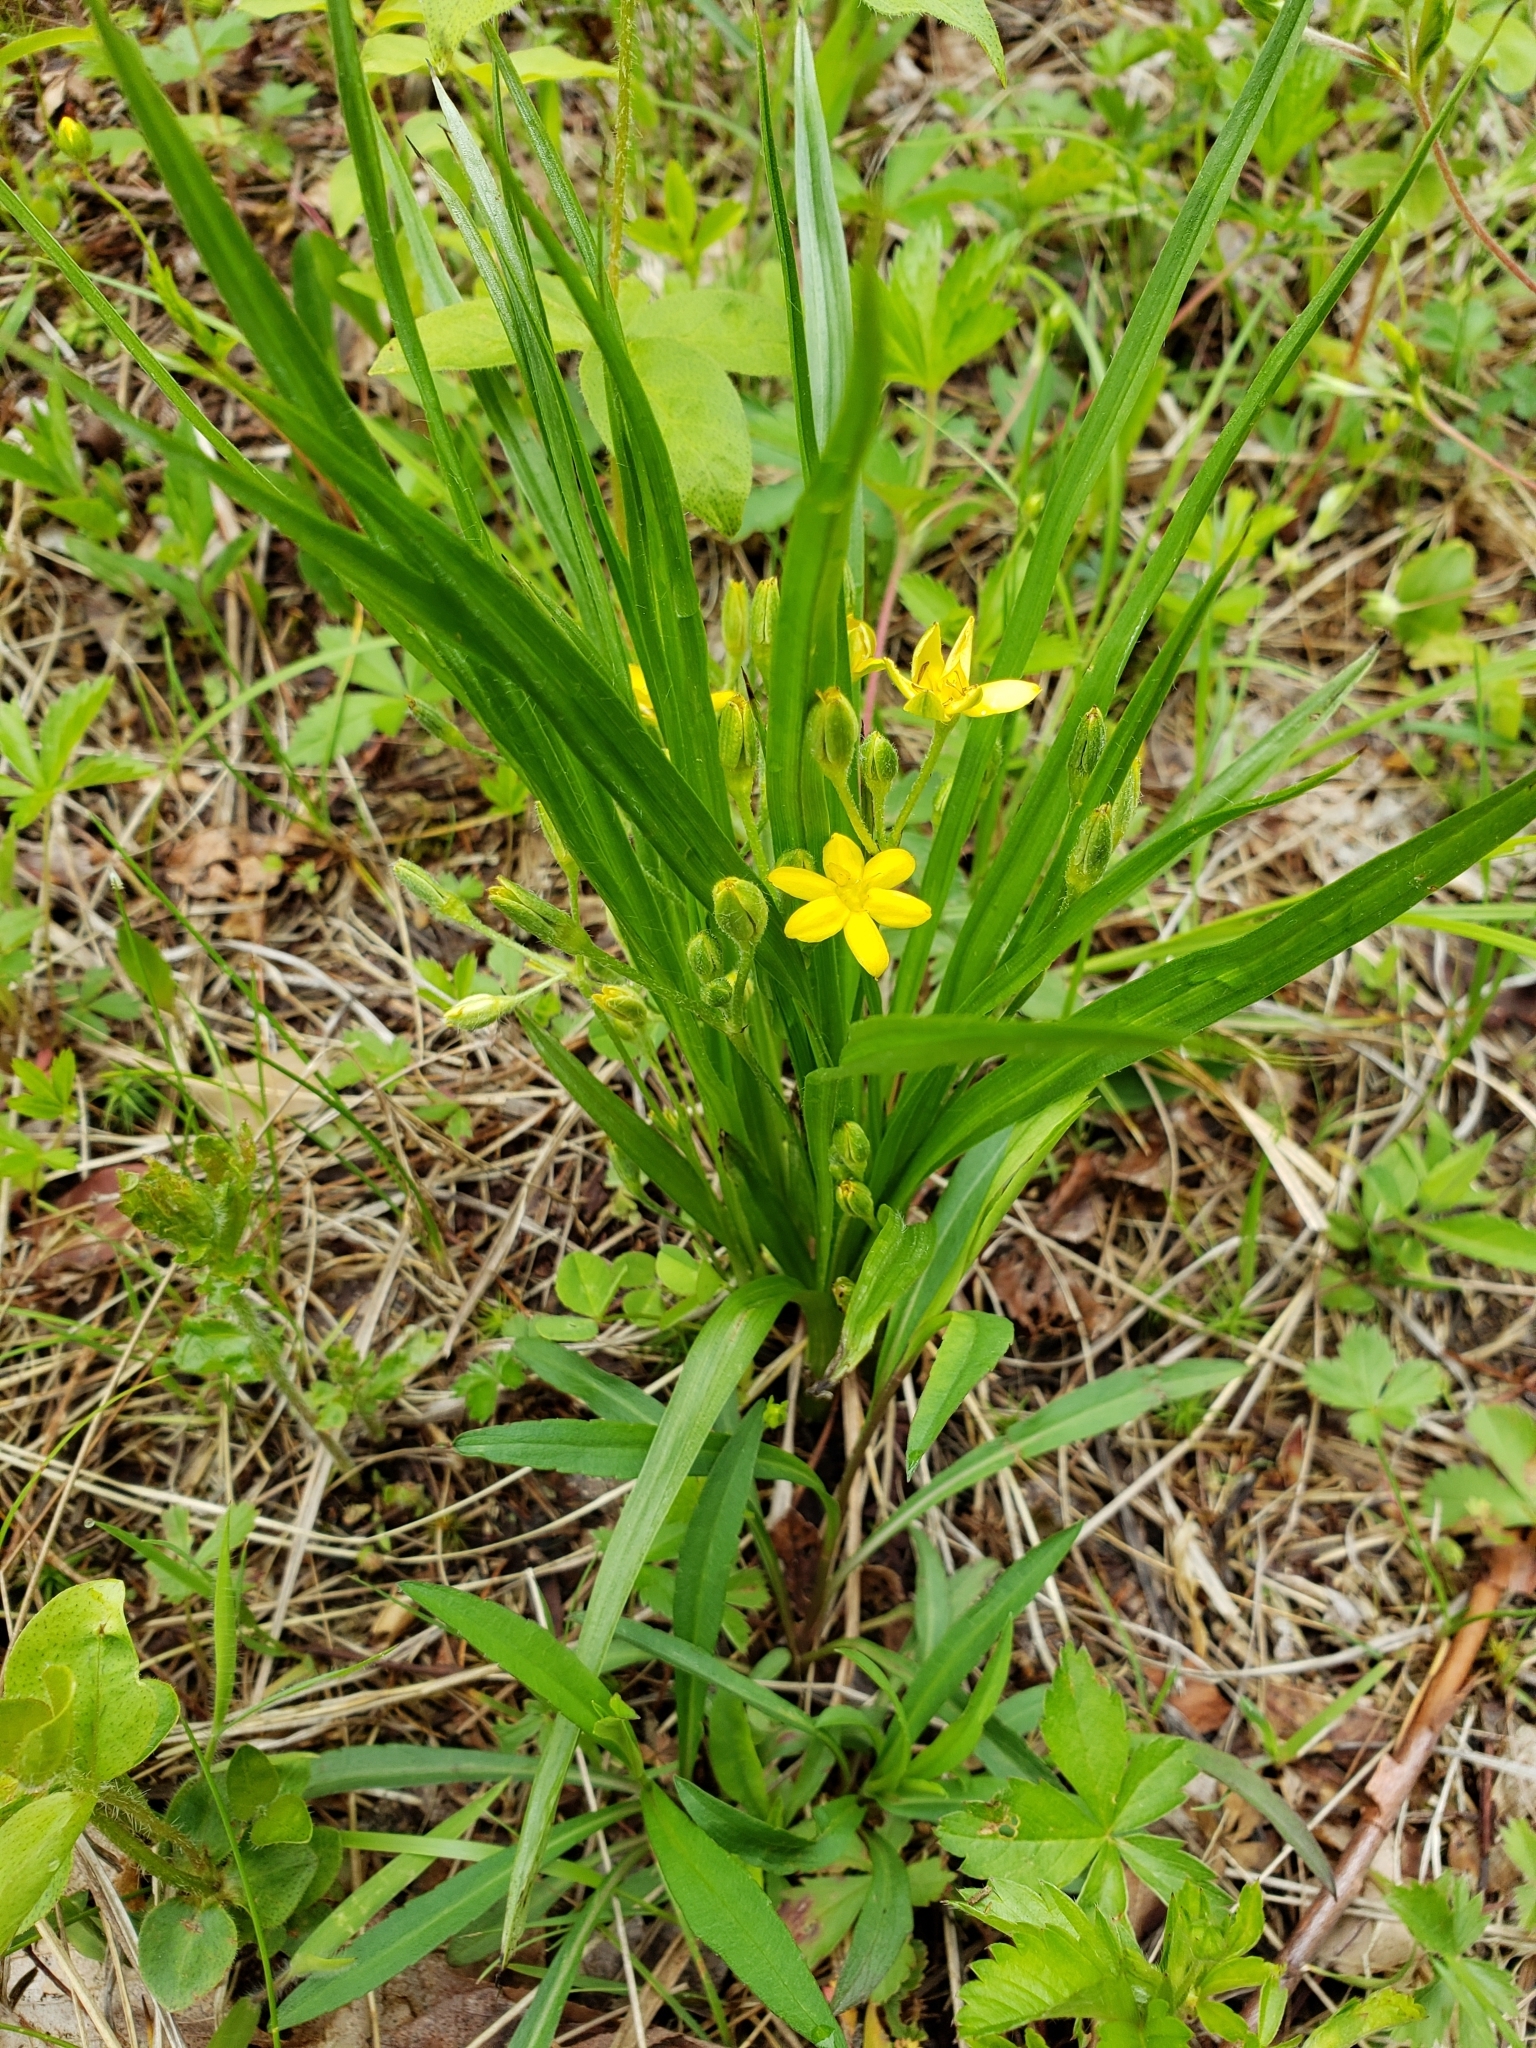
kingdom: Plantae
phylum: Tracheophyta
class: Liliopsida
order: Asparagales
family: Hypoxidaceae
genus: Hypoxis
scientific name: Hypoxis hirsuta
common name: Common goldstar
